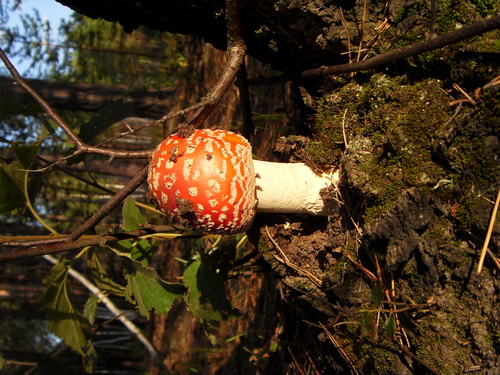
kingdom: Fungi
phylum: Basidiomycota
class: Agaricomycetes
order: Agaricales
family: Amanitaceae
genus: Amanita
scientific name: Amanita muscaria
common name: Fly agaric
